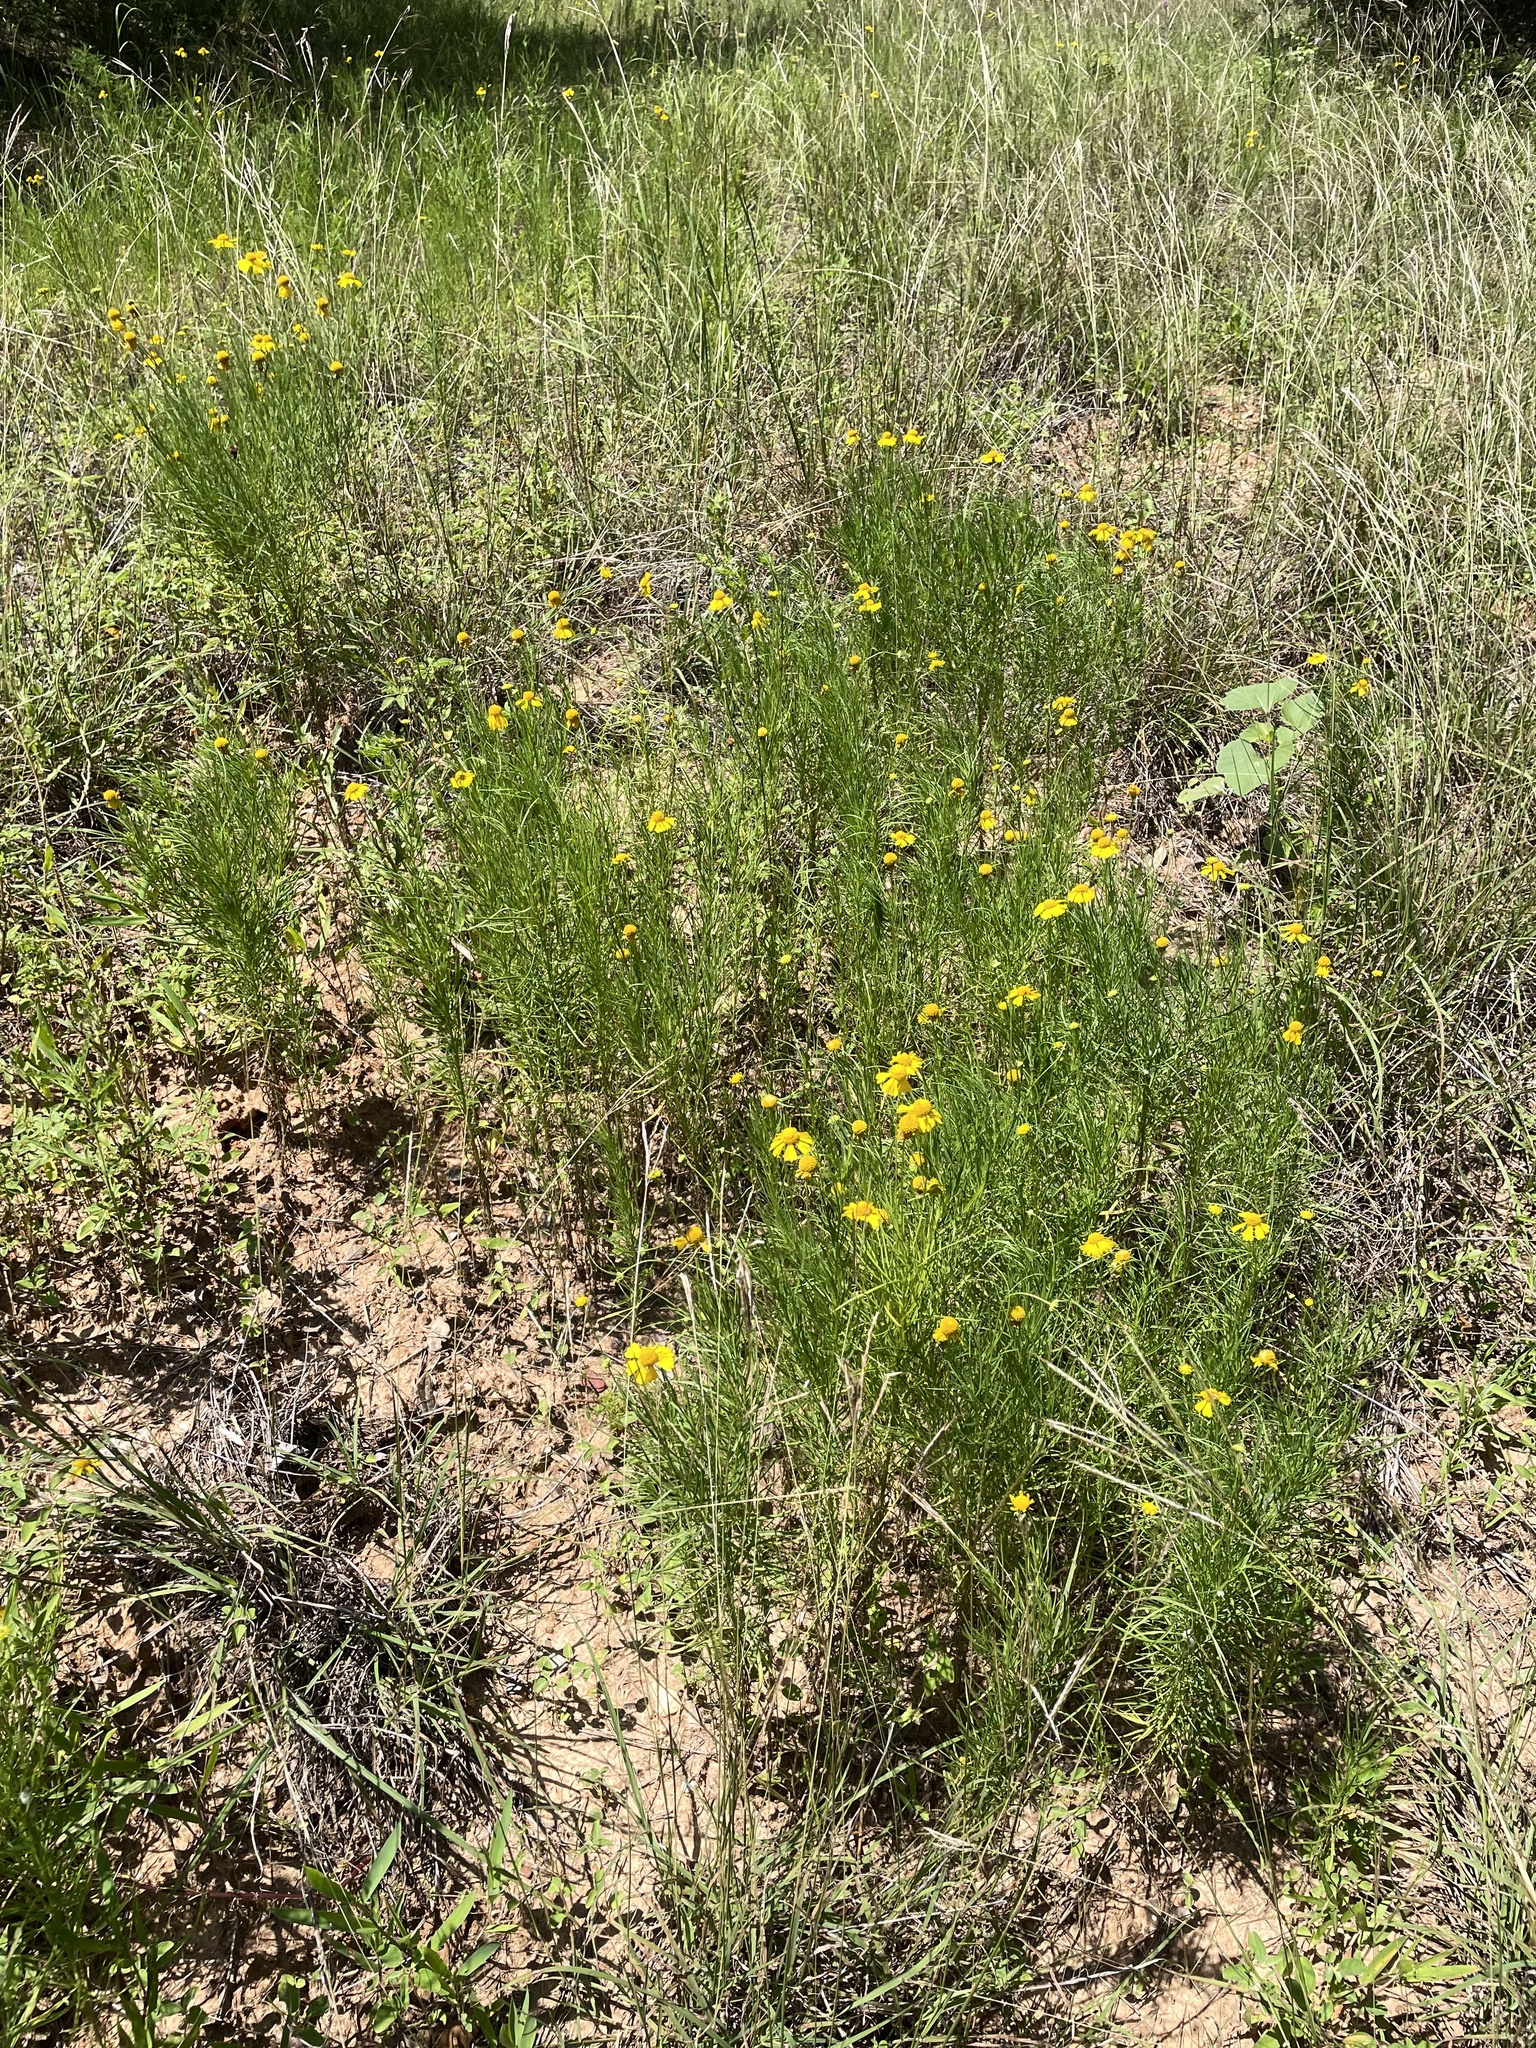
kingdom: Plantae
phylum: Tracheophyta
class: Magnoliopsida
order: Asterales
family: Asteraceae
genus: Helenium
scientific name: Helenium amarum
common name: Bitter sneezeweed
